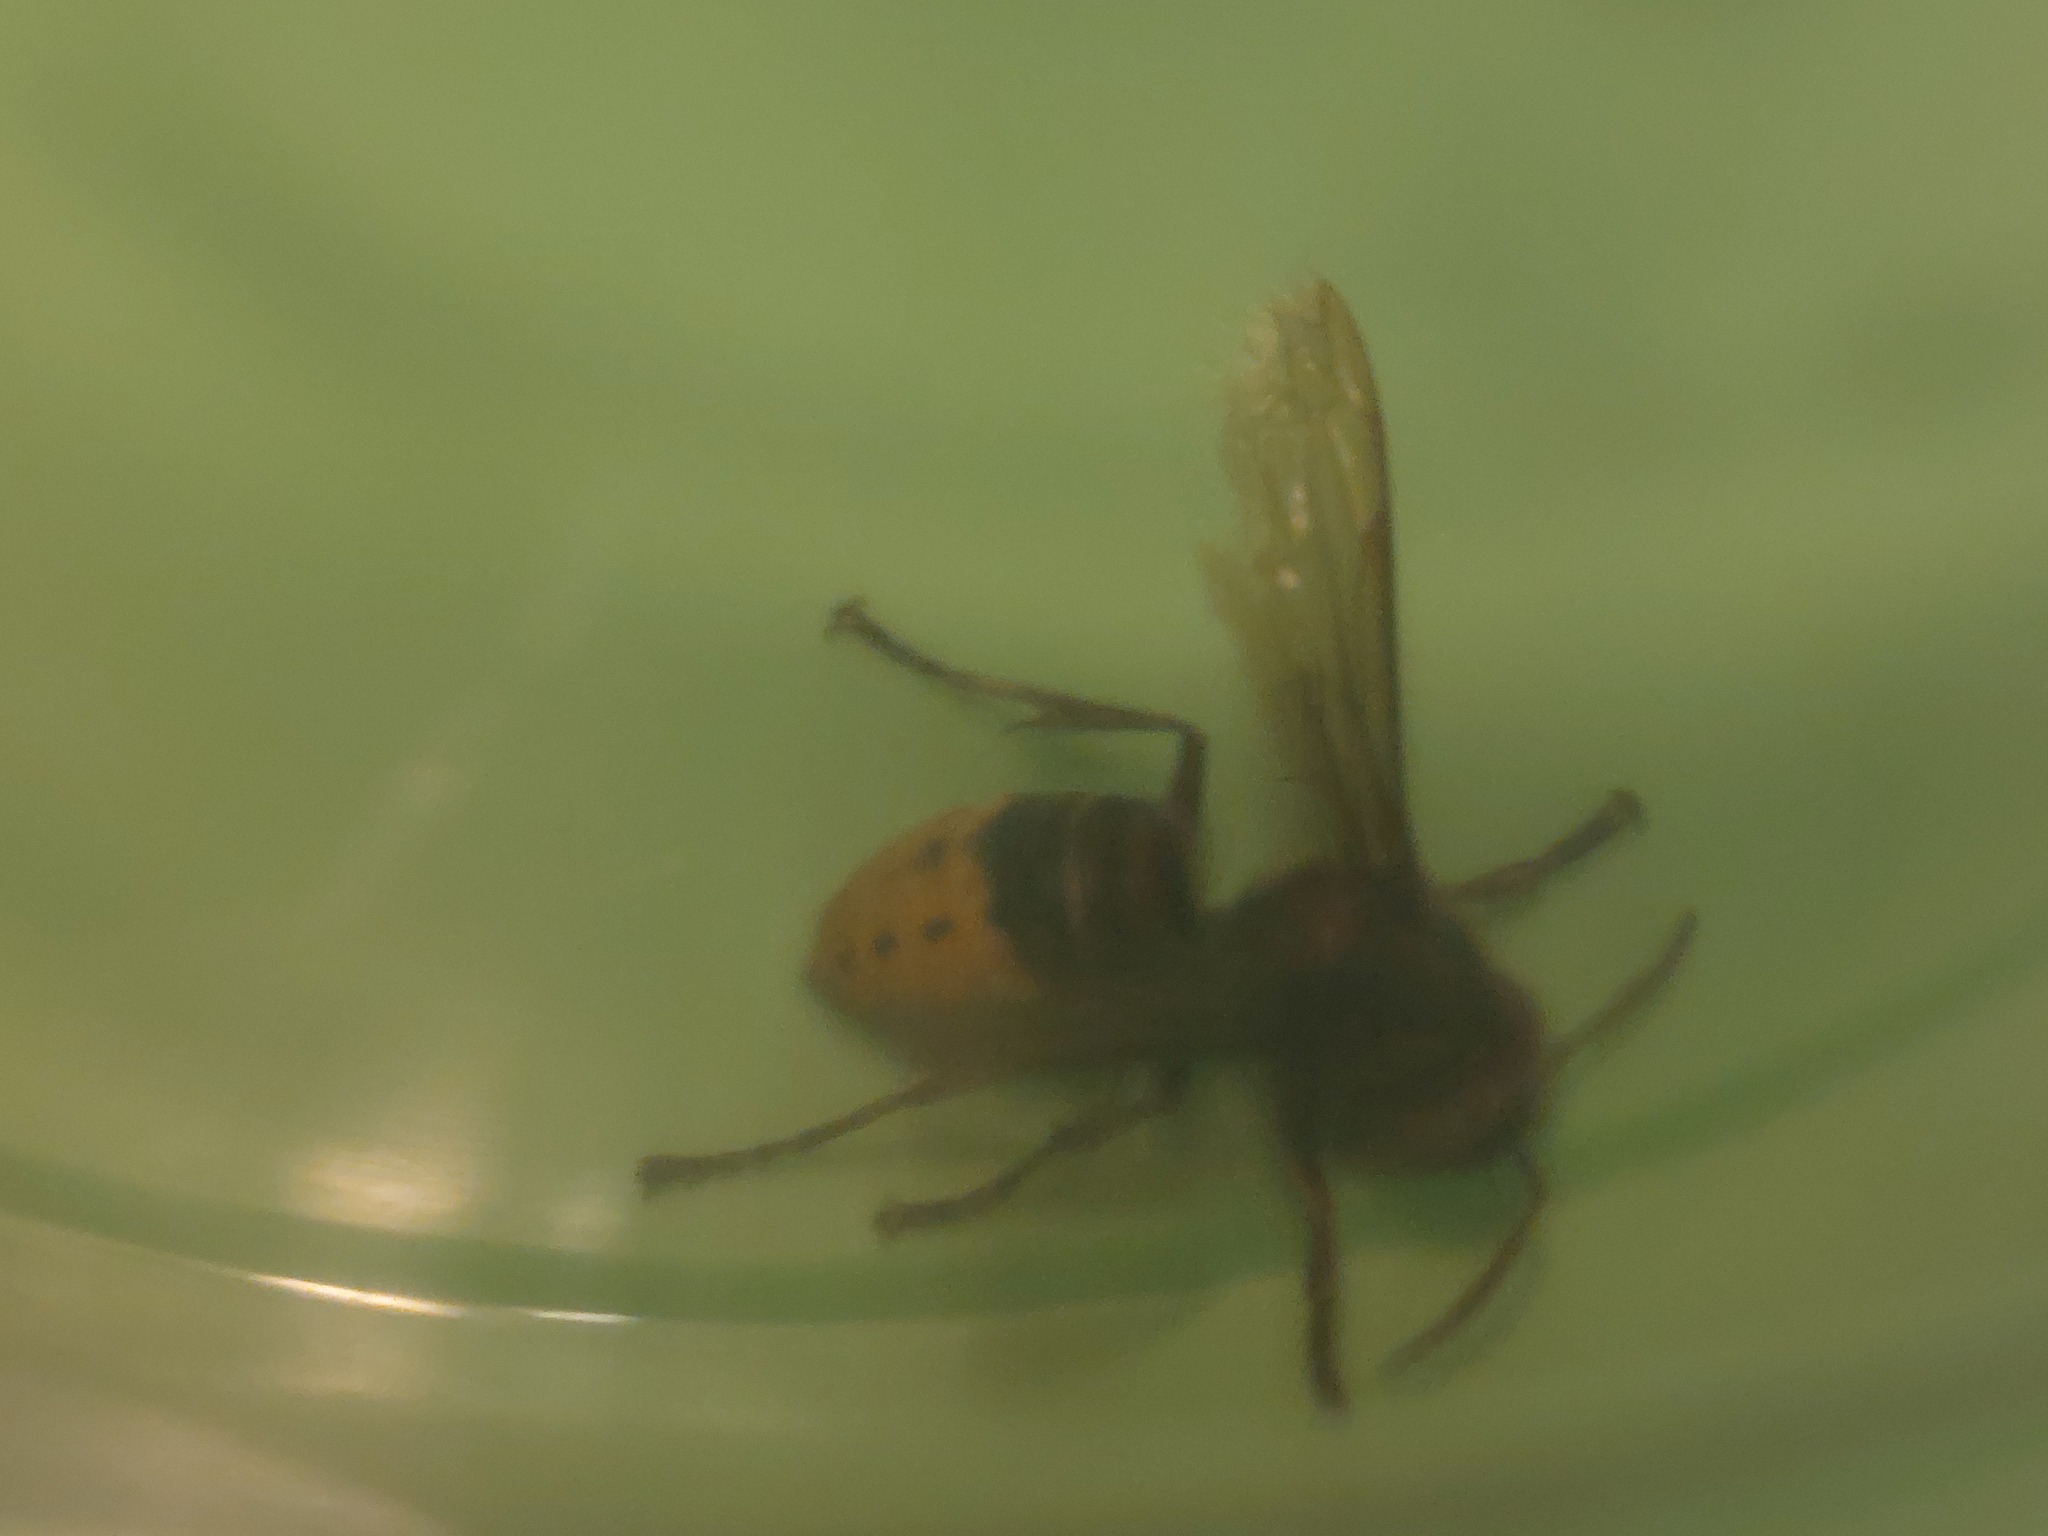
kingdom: Animalia
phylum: Arthropoda
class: Insecta
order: Hymenoptera
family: Vespidae
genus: Vespa
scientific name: Vespa crabro
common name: Hornet
